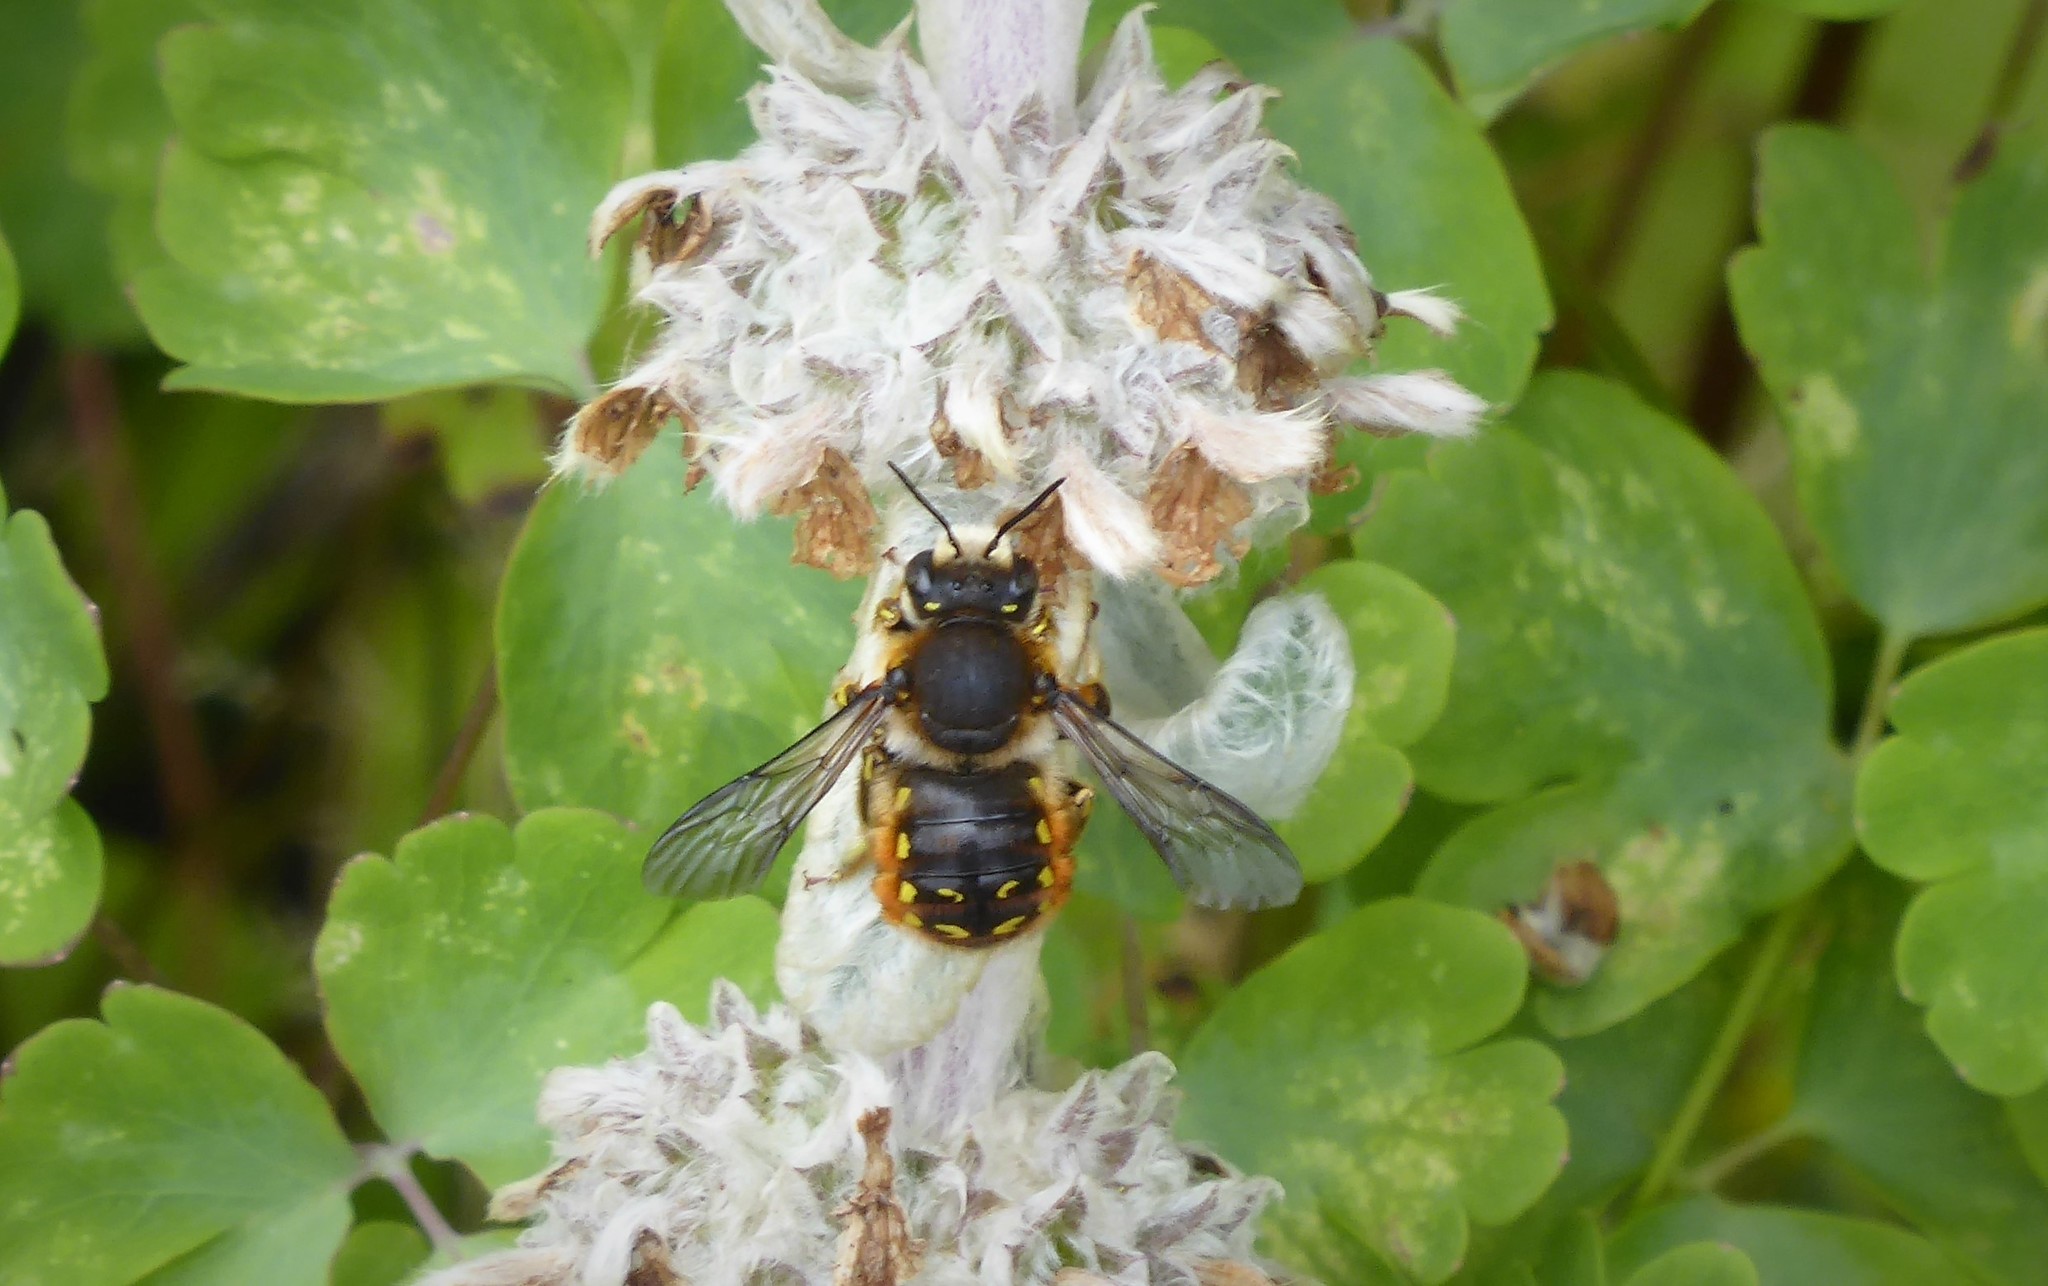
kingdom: Animalia
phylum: Arthropoda
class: Insecta
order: Hymenoptera
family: Megachilidae
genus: Anthidium
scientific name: Anthidium manicatum
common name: Wool carder bee
